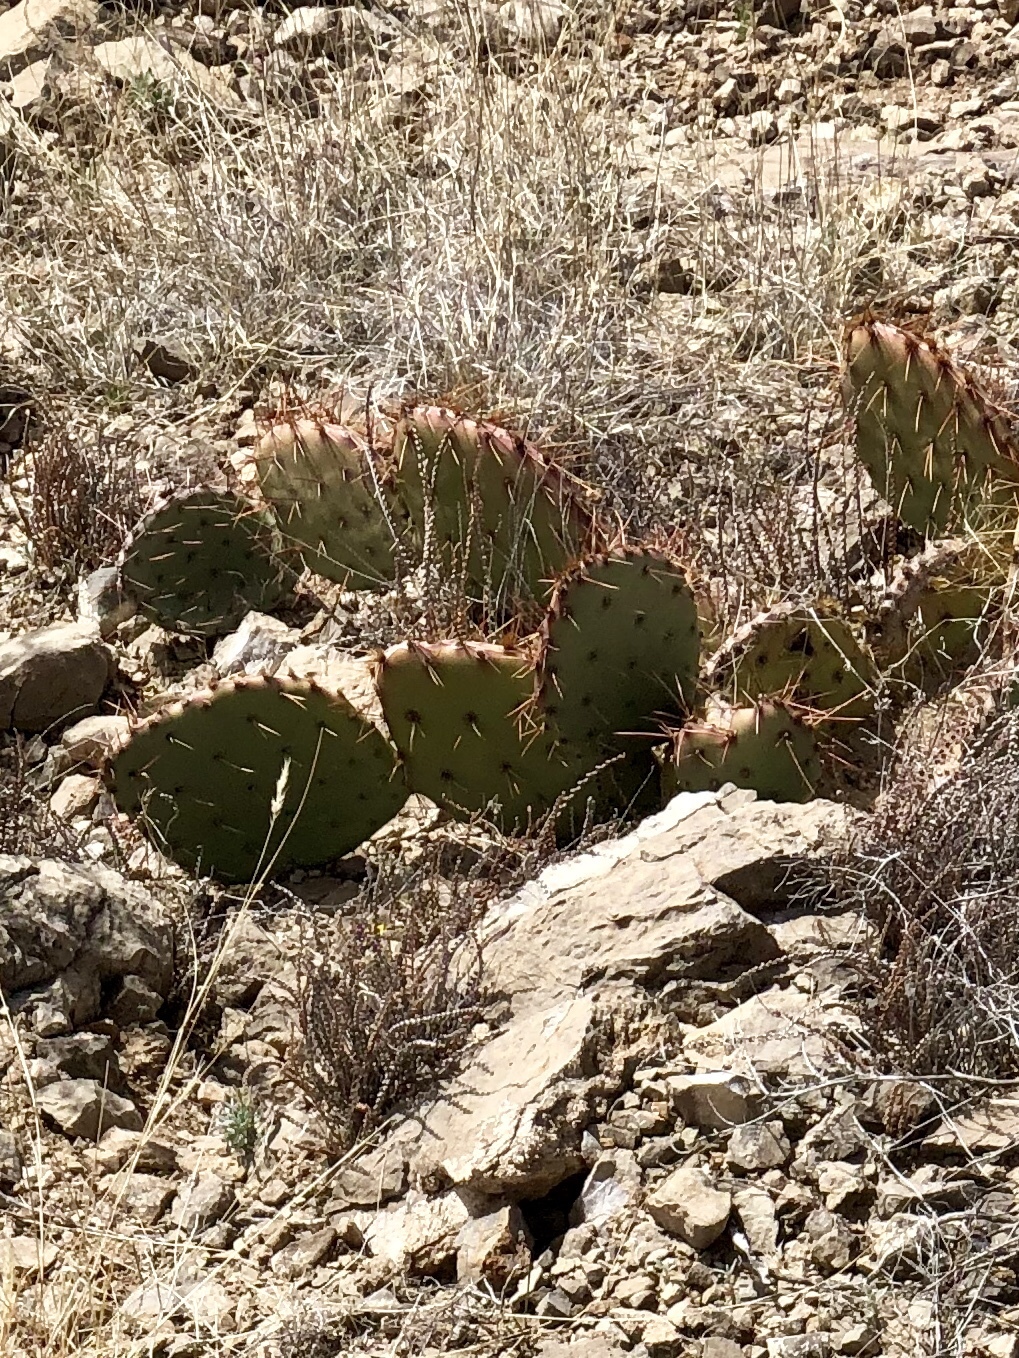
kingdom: Plantae
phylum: Tracheophyta
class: Magnoliopsida
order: Caryophyllales
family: Cactaceae
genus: Opuntia
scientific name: Opuntia phaeacantha
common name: New mexico prickly-pear
